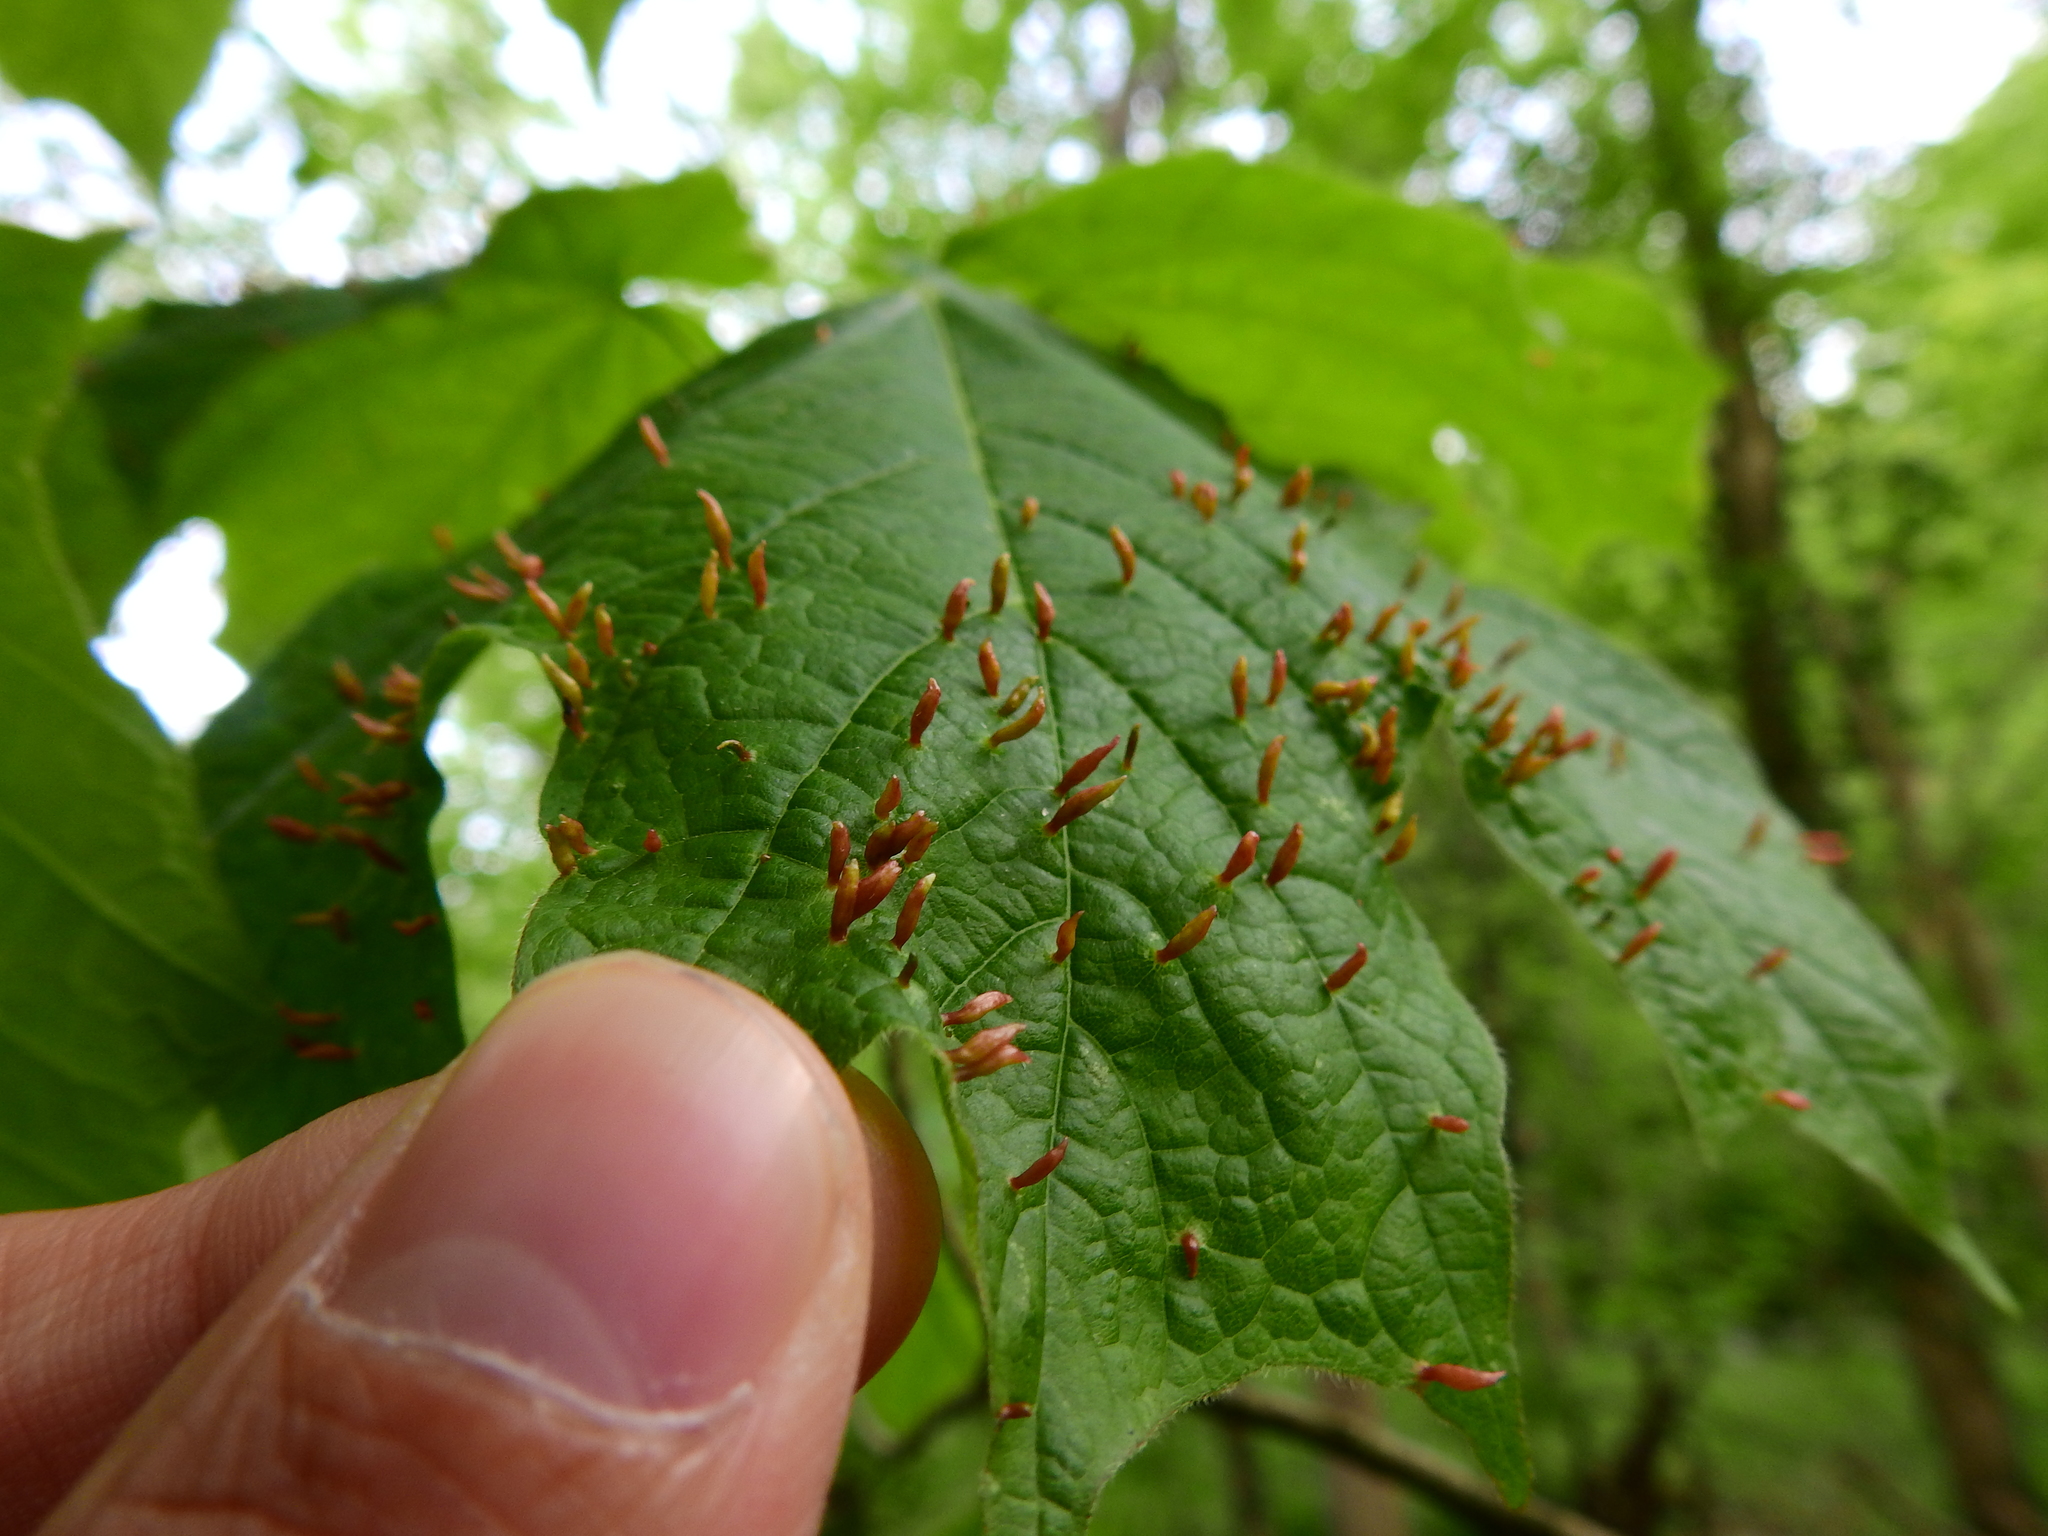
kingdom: Animalia
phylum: Arthropoda
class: Arachnida
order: Trombidiformes
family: Eriophyidae
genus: Vasates
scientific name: Vasates aceriscrumena
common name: Maple spindle gall mite
